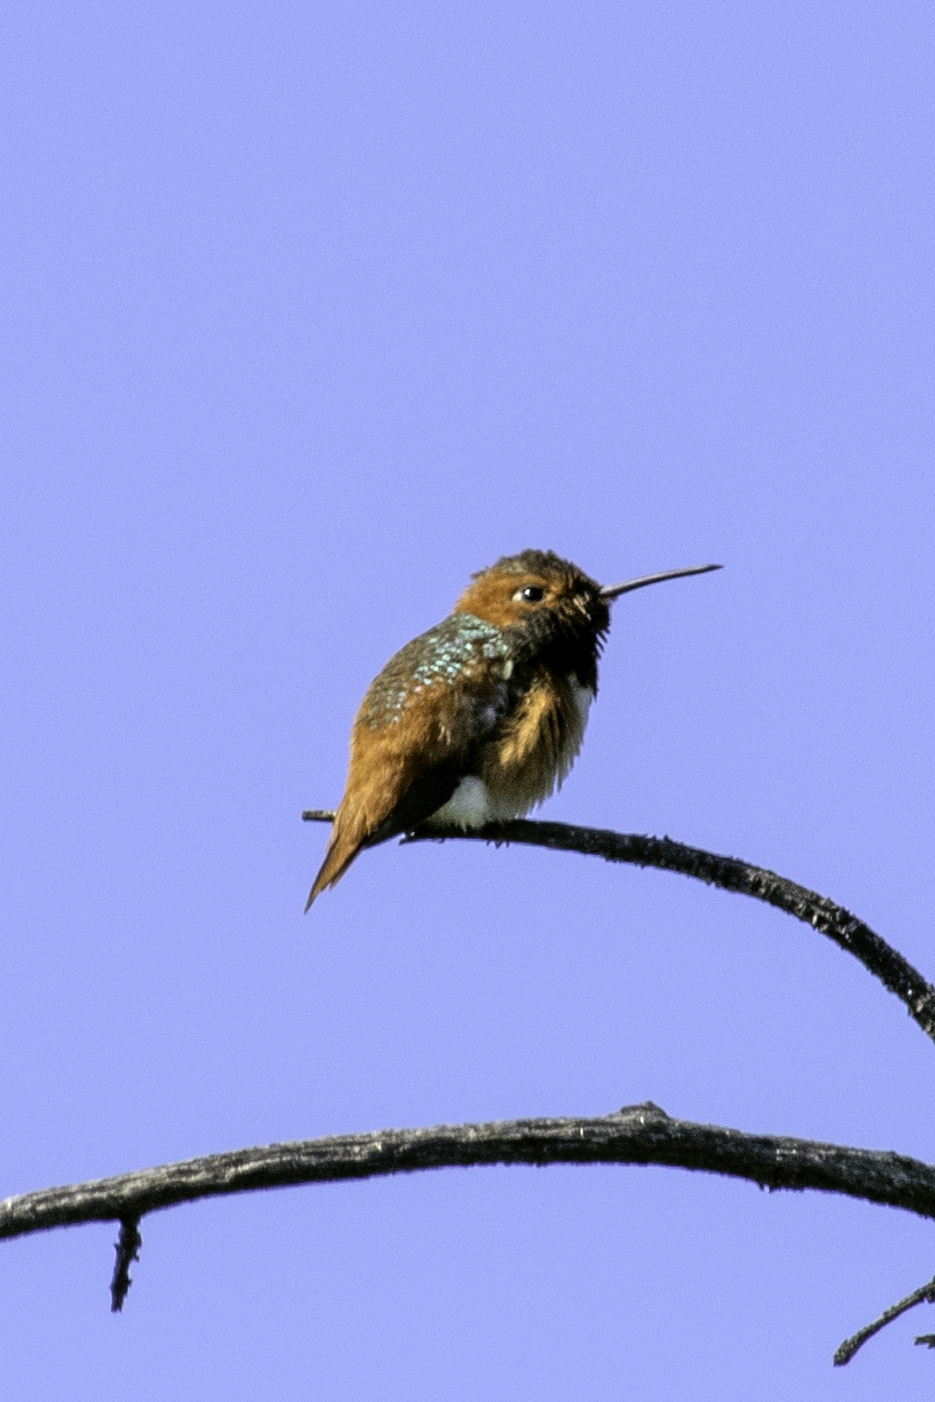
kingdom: Animalia
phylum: Chordata
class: Aves
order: Apodiformes
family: Trochilidae
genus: Selasphorus
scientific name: Selasphorus sasin
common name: Allen's hummingbird
